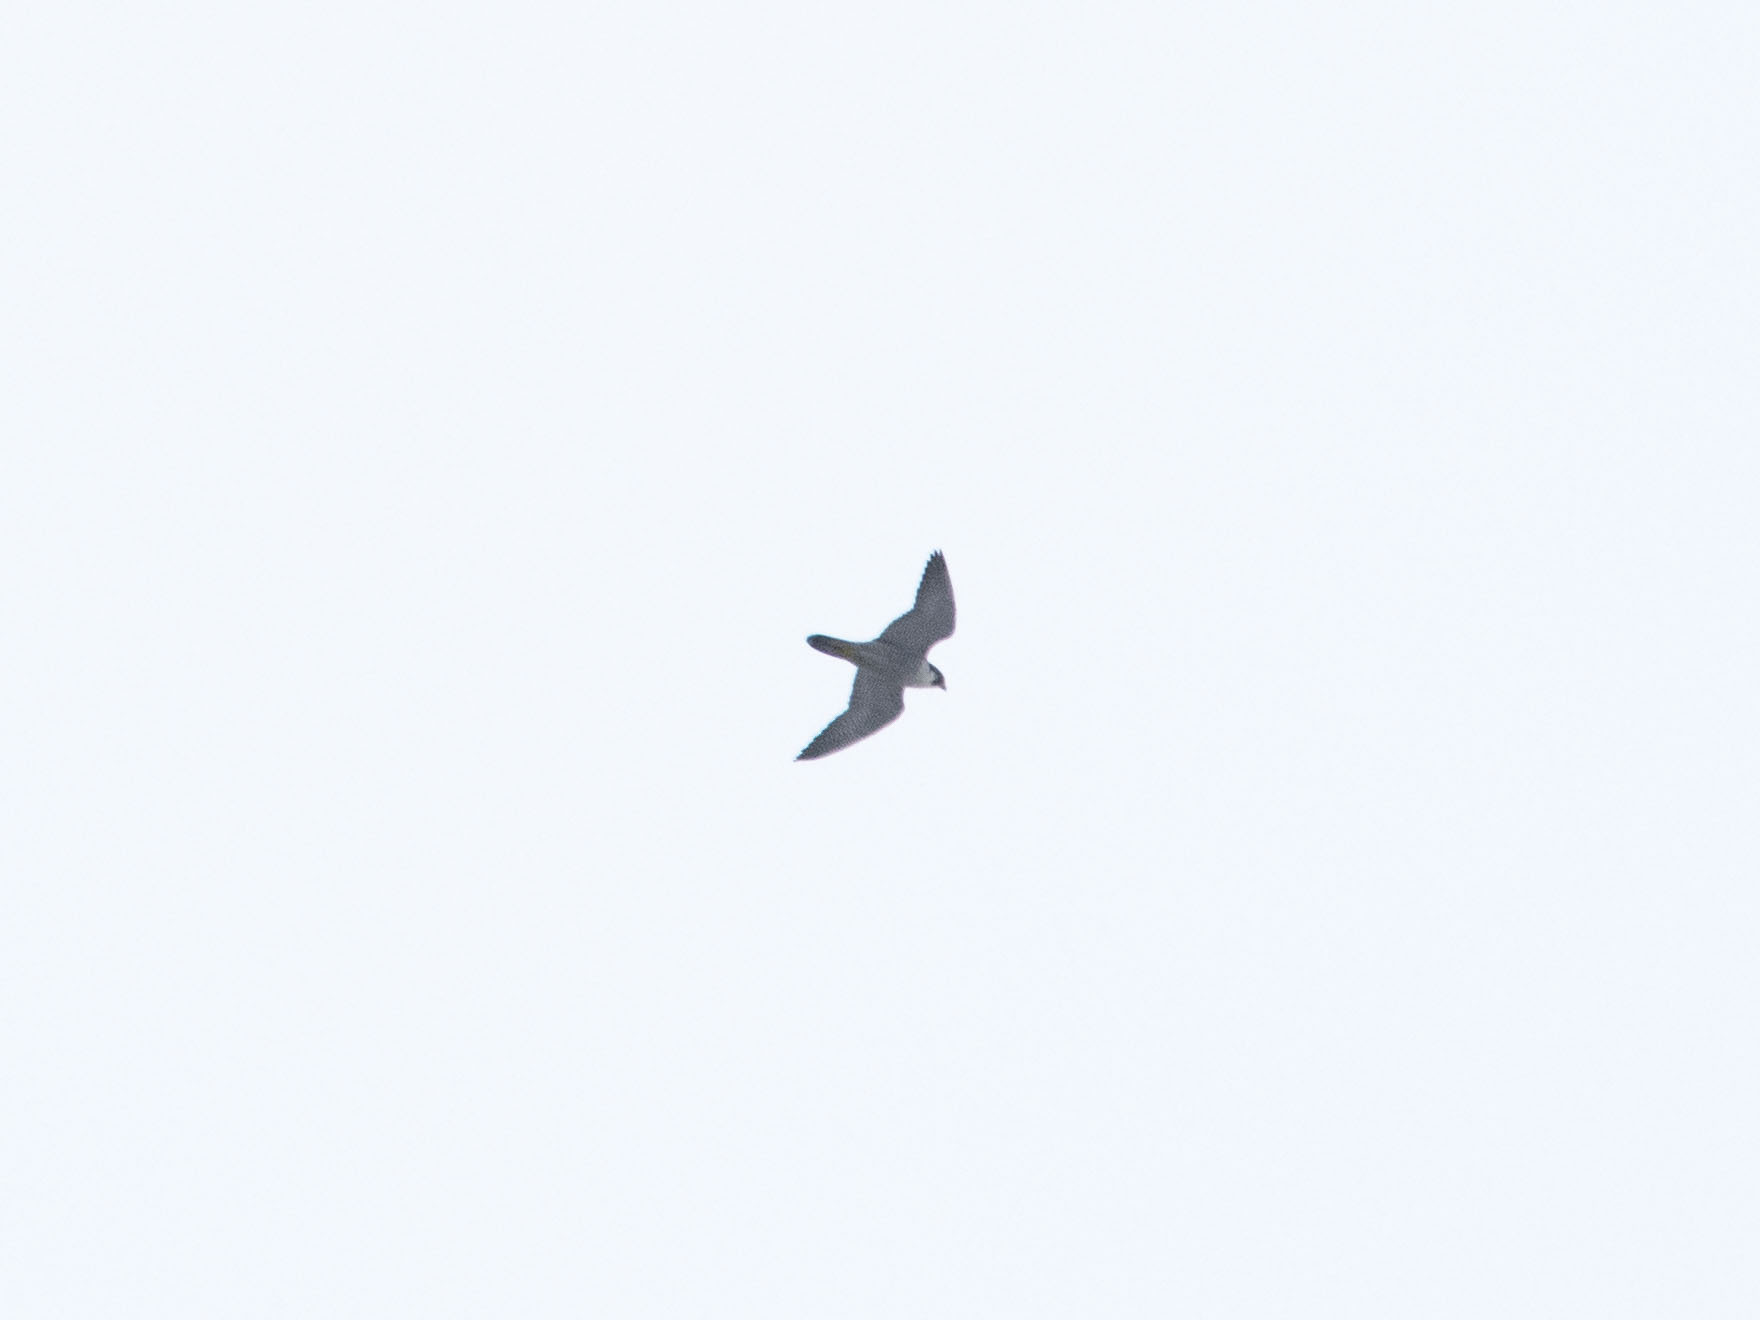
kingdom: Animalia
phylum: Chordata
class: Aves
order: Falconiformes
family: Falconidae
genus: Falco
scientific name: Falco peregrinus
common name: Peregrine falcon
